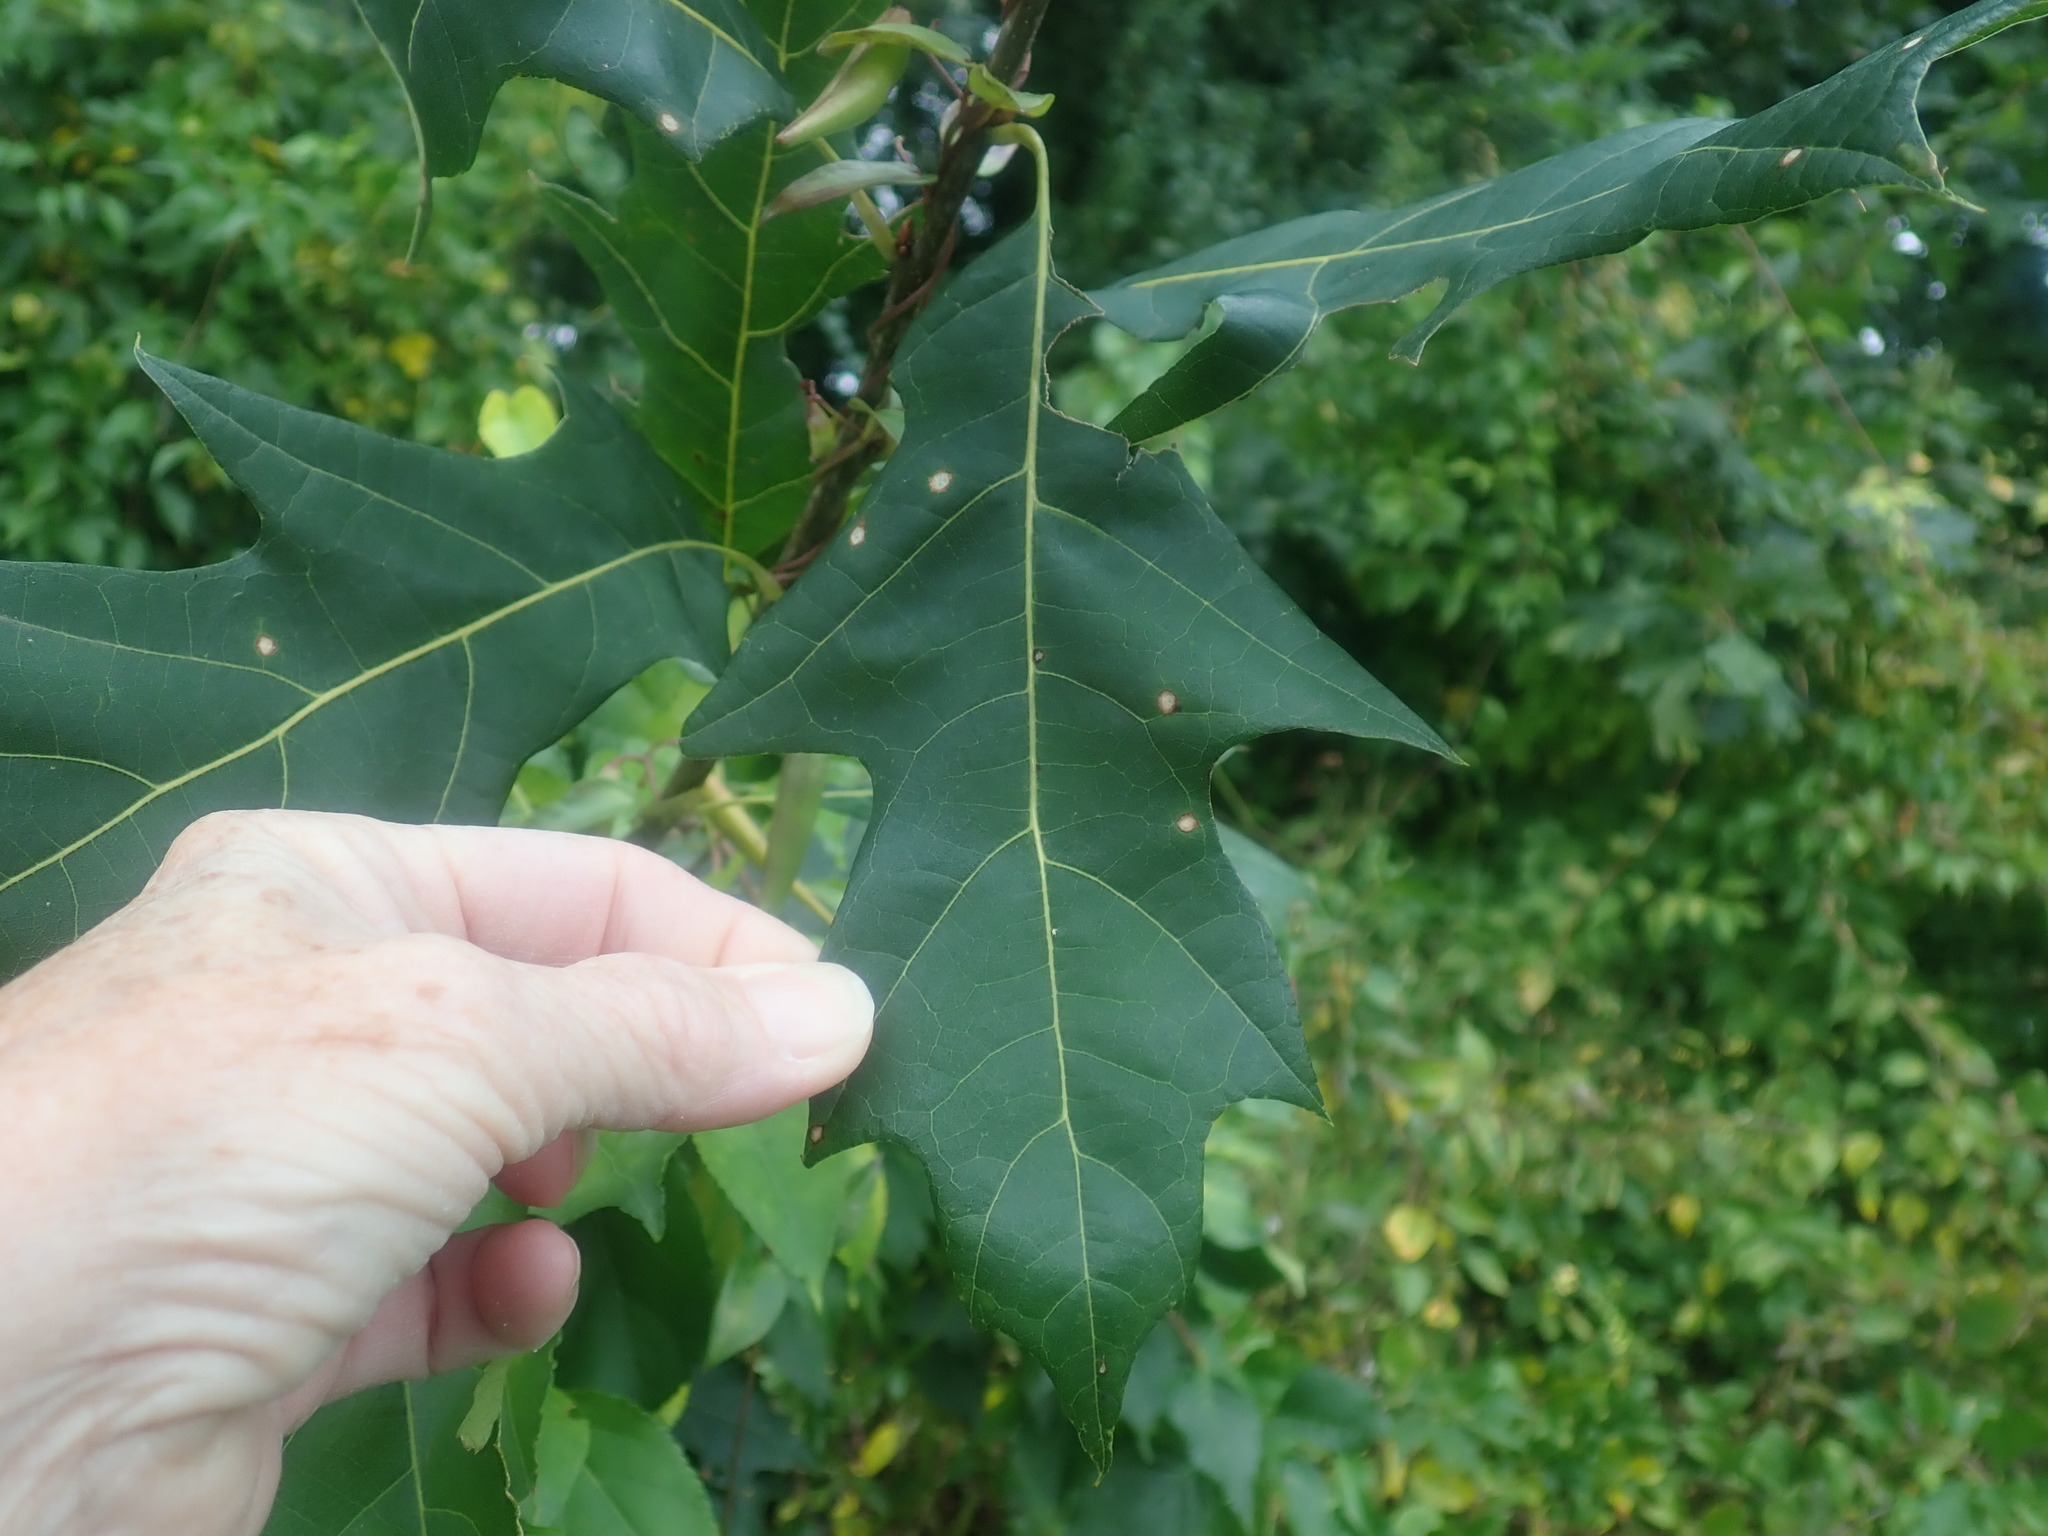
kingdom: Plantae
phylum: Tracheophyta
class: Magnoliopsida
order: Fagales
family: Fagaceae
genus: Quercus
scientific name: Quercus rubra
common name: Red oak
